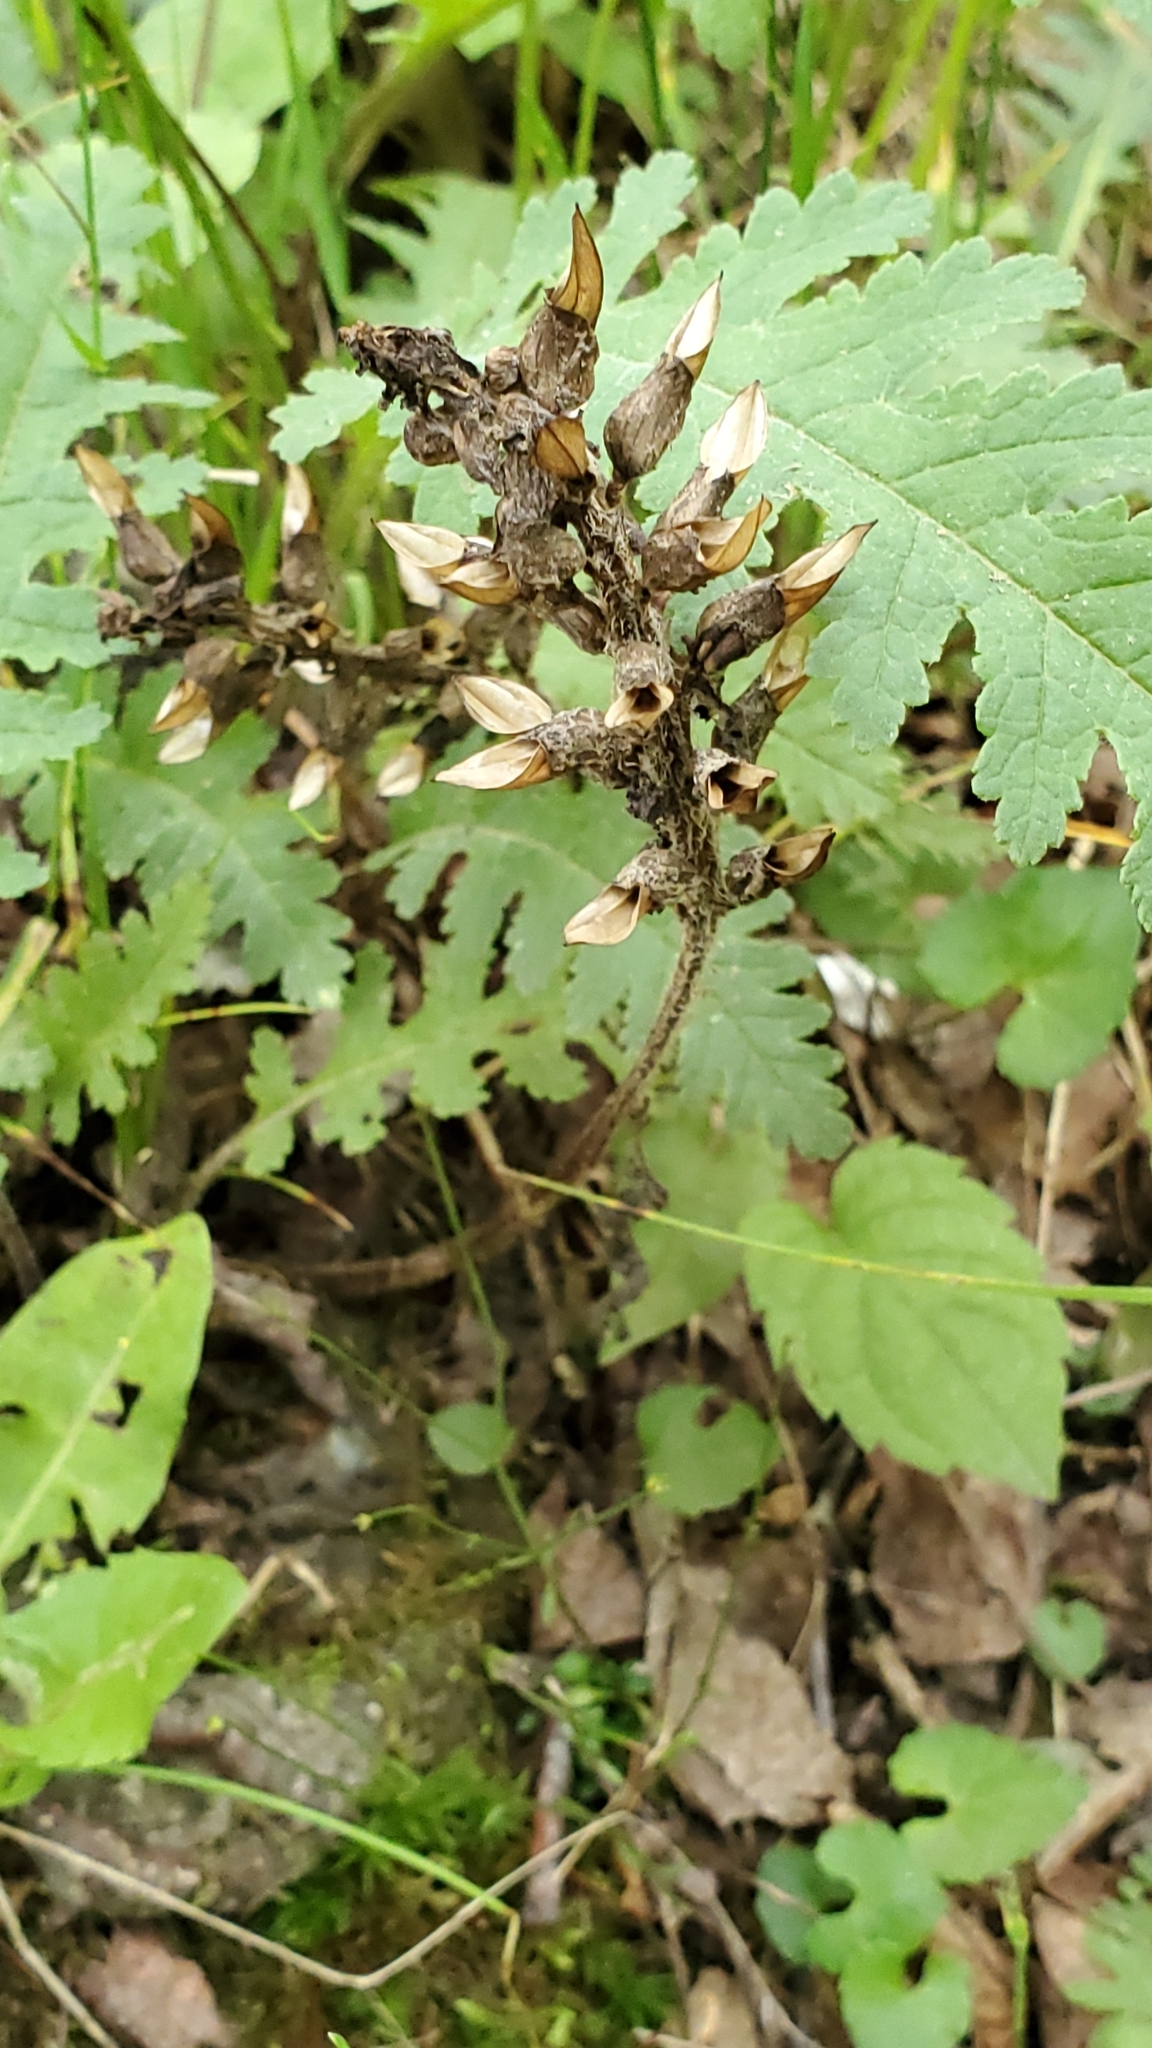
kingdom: Plantae
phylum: Tracheophyta
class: Magnoliopsida
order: Lamiales
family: Orobanchaceae
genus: Pedicularis
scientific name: Pedicularis canadensis
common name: Early lousewort
